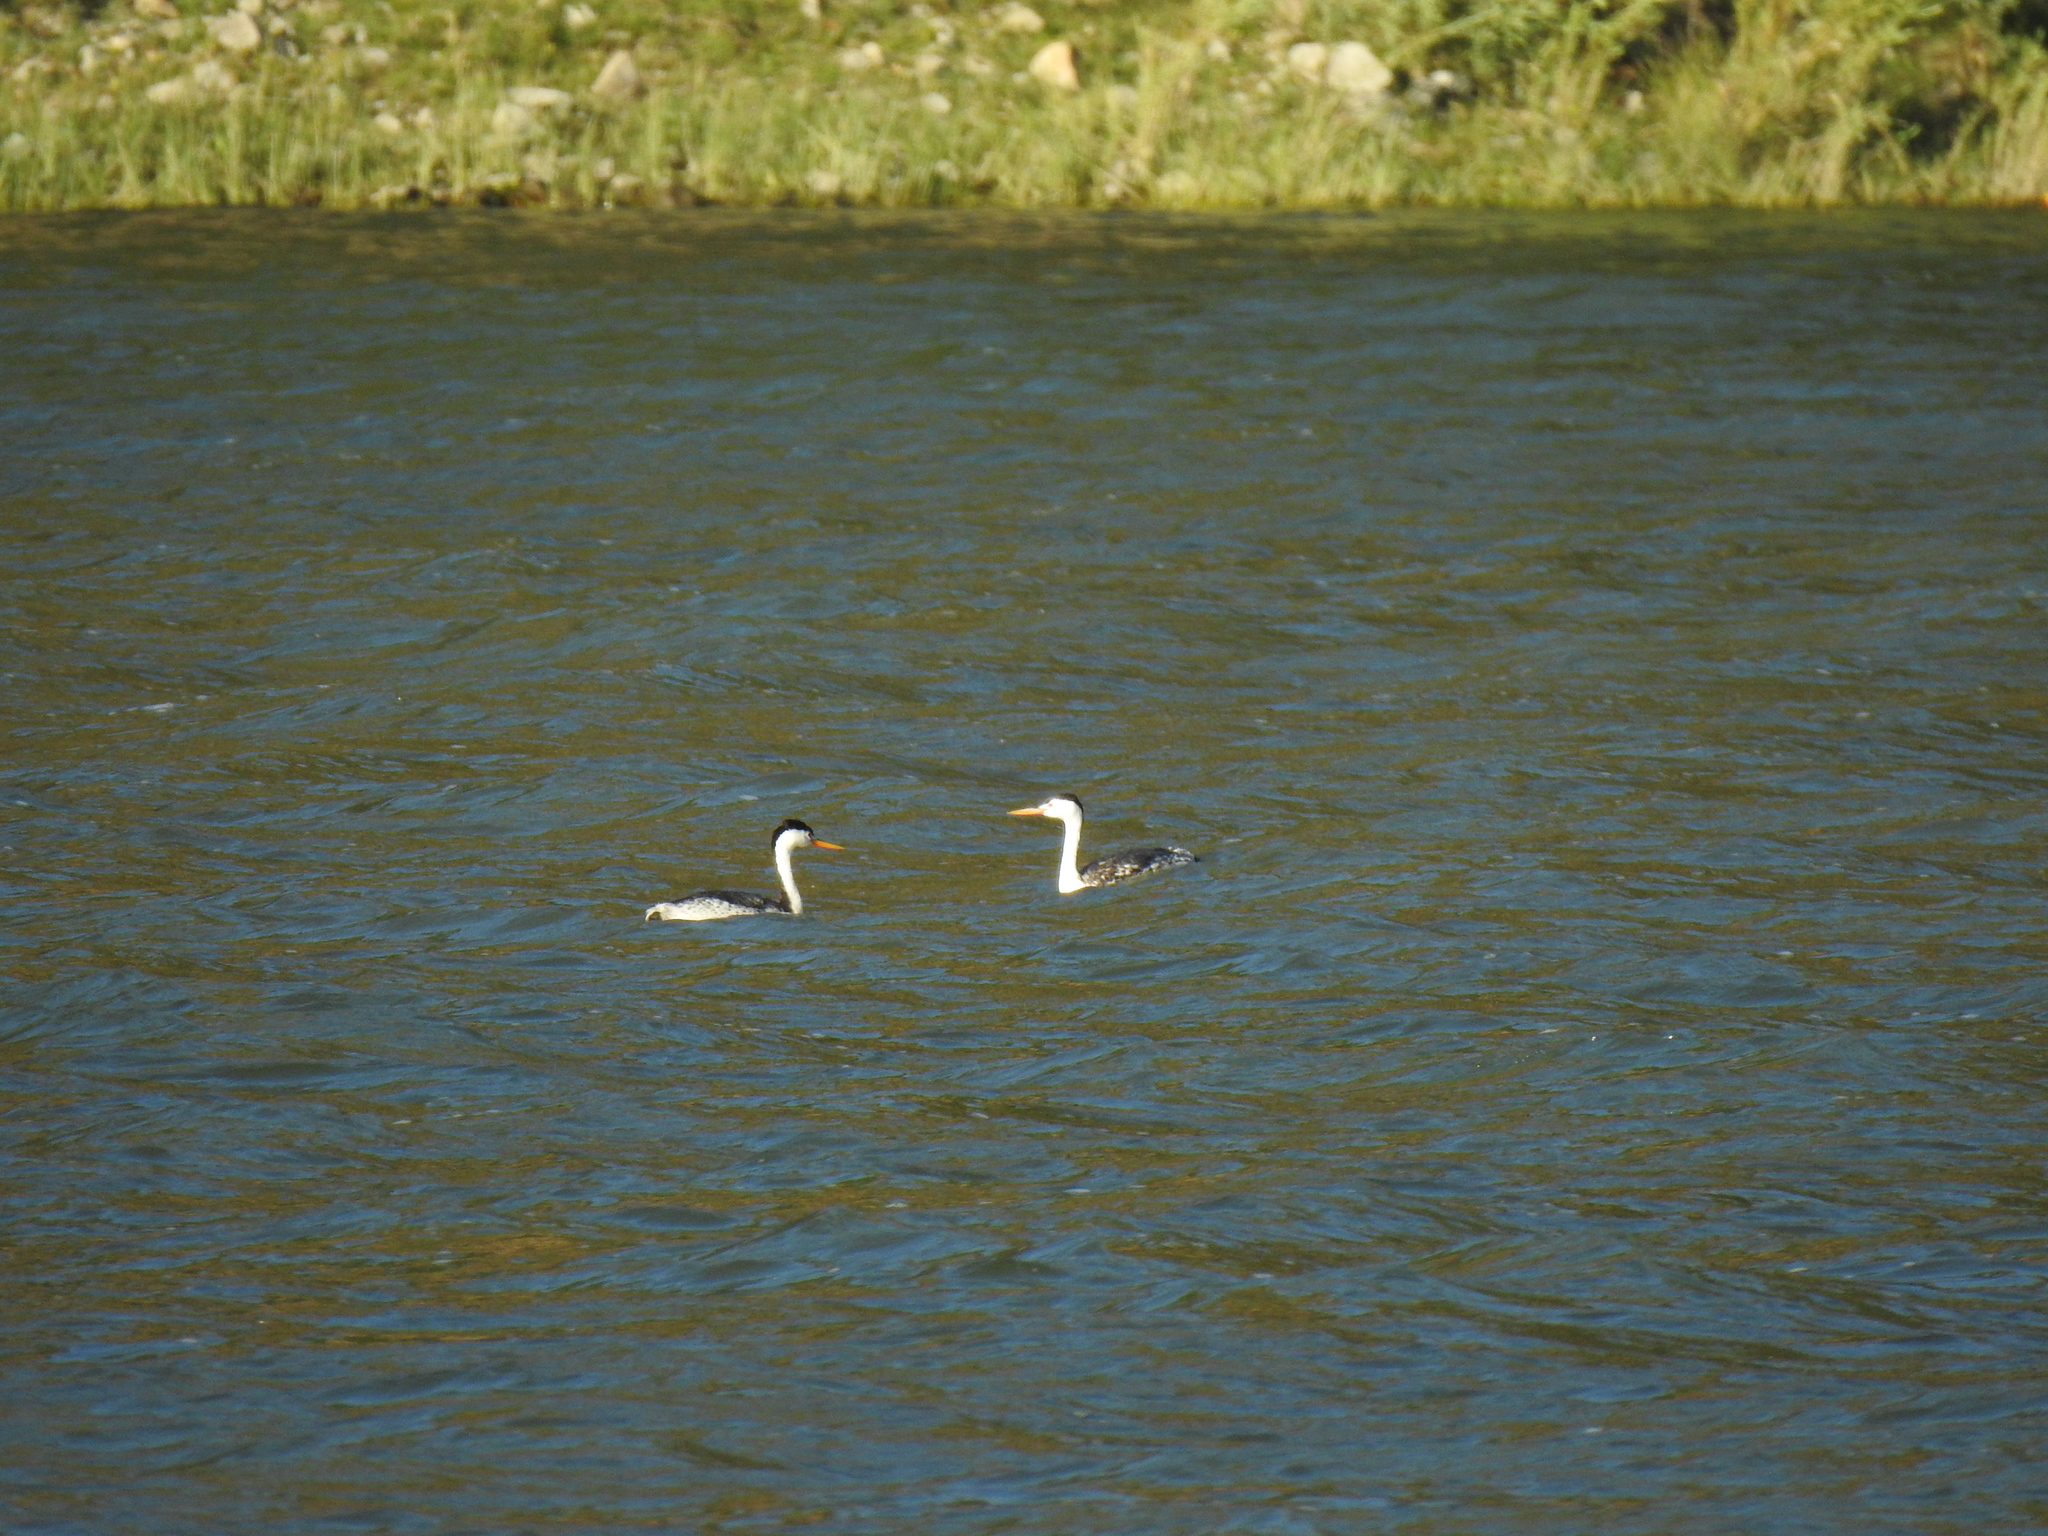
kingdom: Animalia
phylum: Chordata
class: Aves
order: Podicipediformes
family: Podicipedidae
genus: Aechmophorus
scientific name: Aechmophorus clarkii
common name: Clark's grebe
